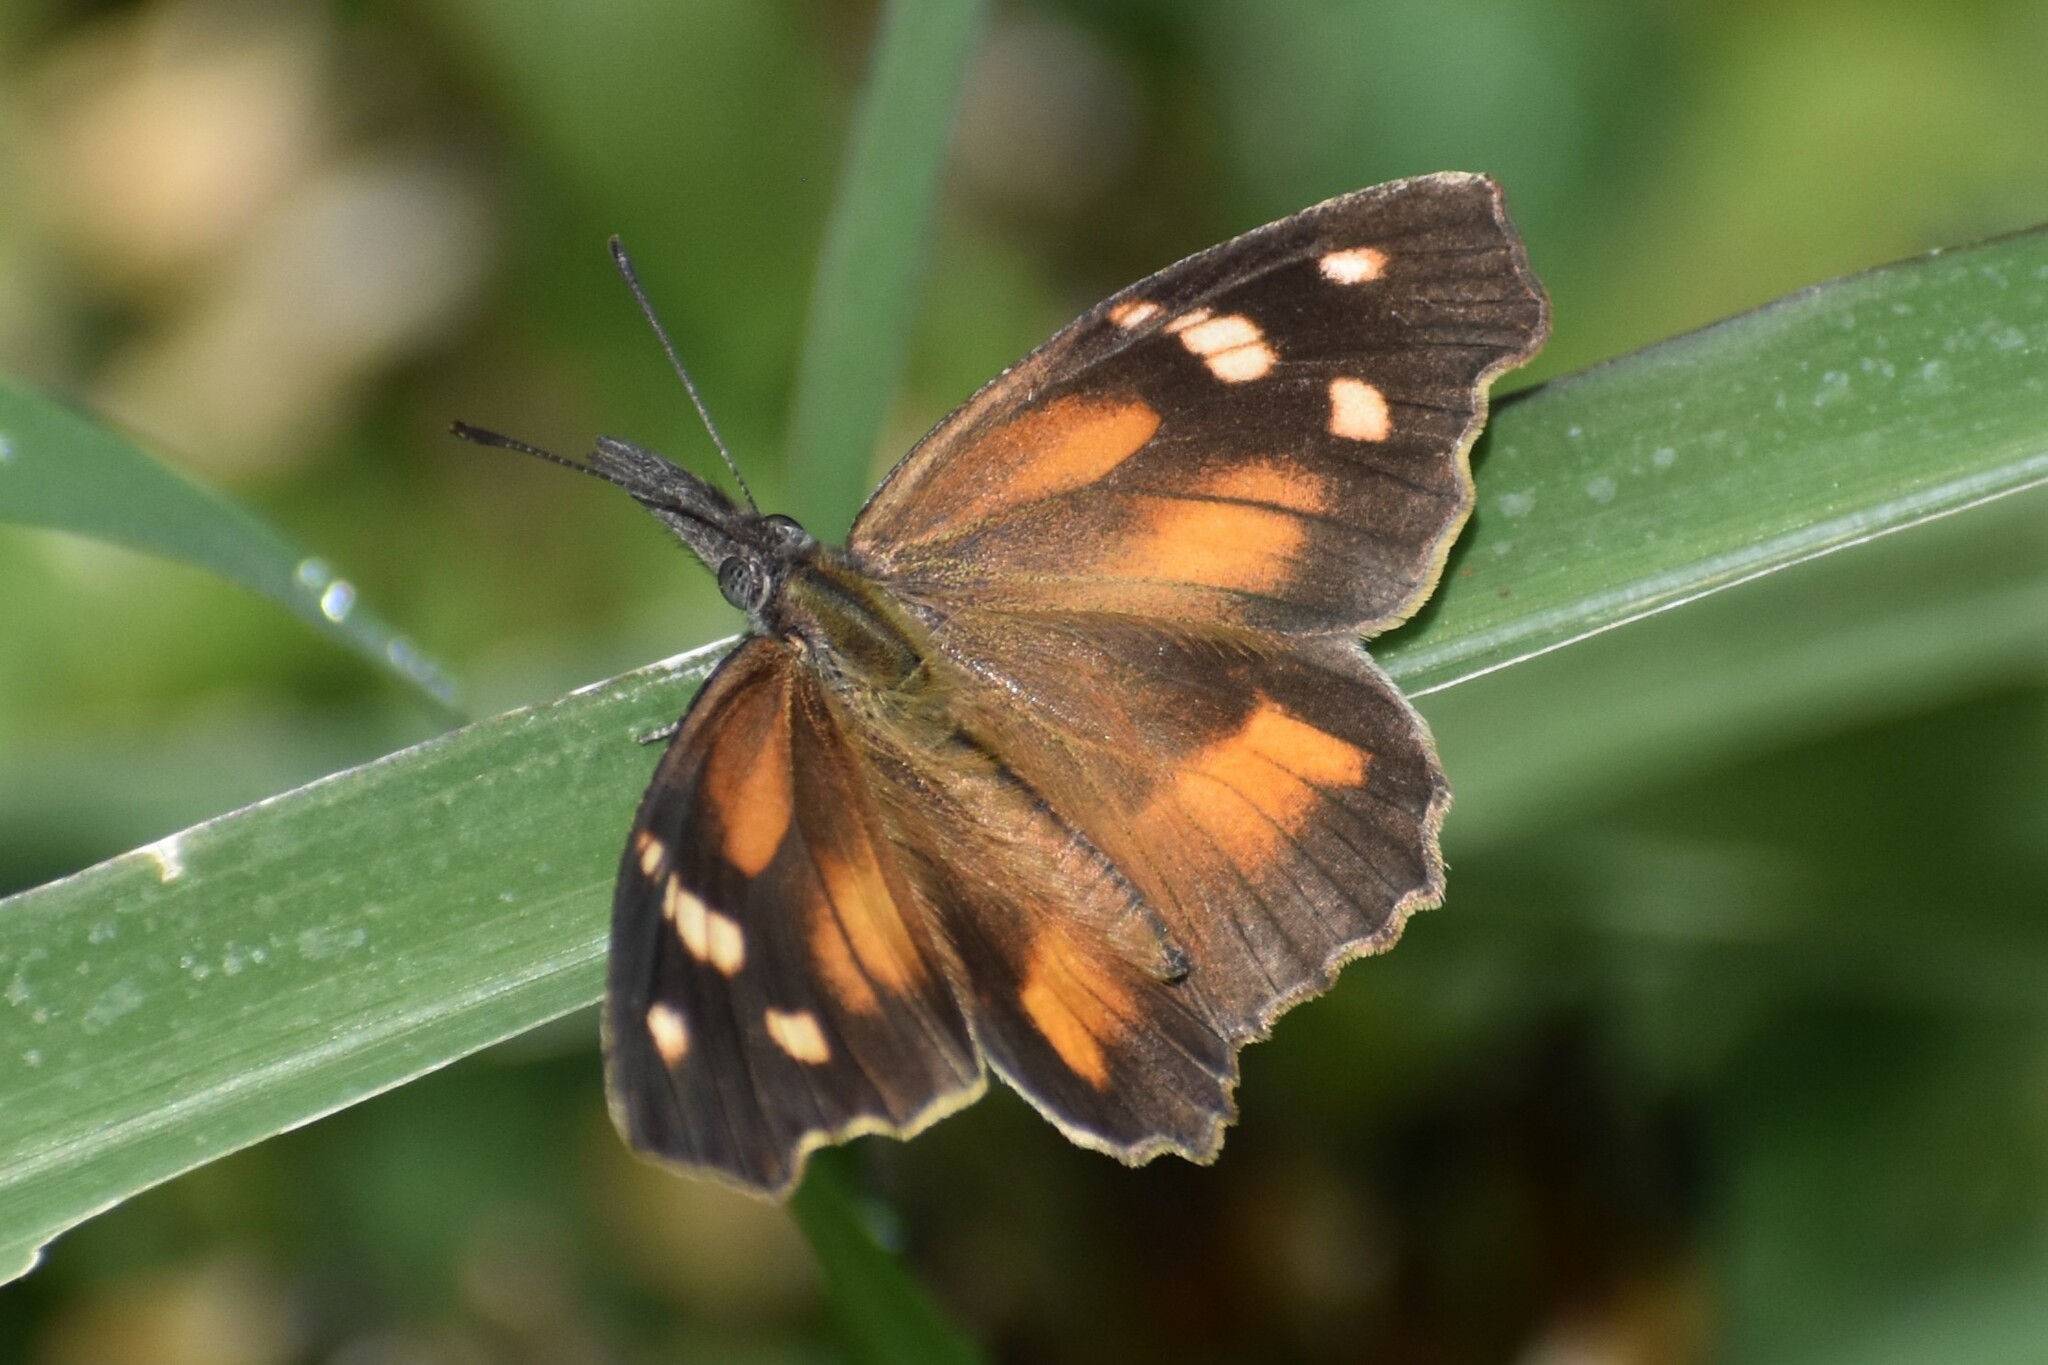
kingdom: Animalia
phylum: Arthropoda
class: Insecta
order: Lepidoptera
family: Nymphalidae
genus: Libytheana
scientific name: Libytheana carinenta
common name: American snout
